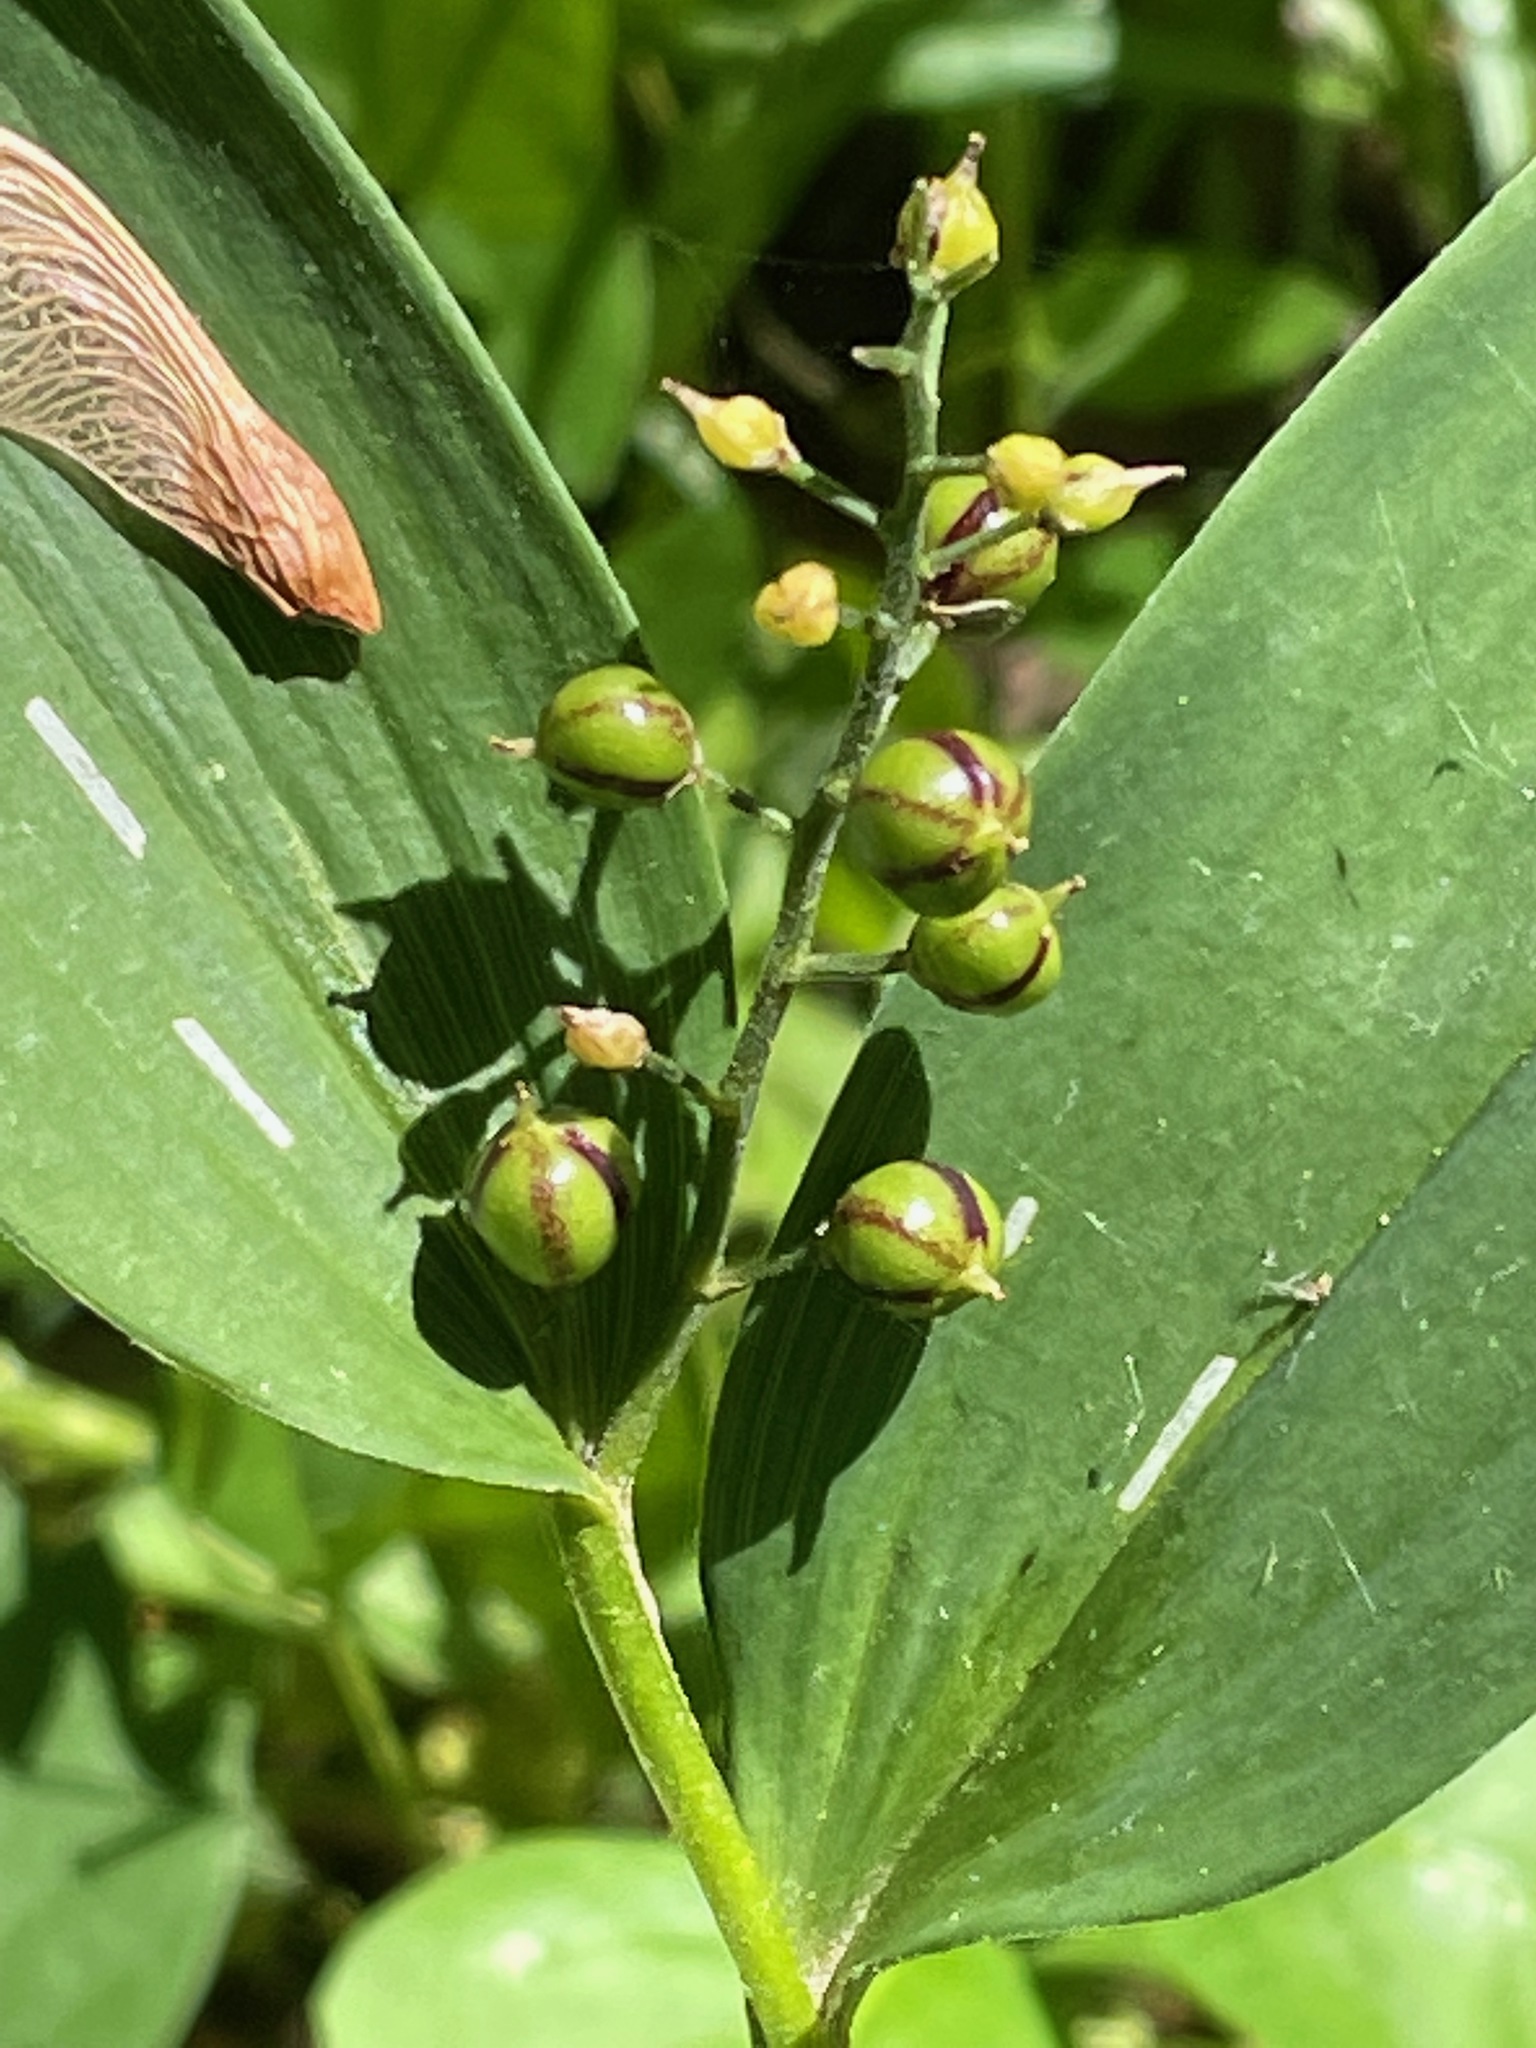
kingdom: Plantae
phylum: Tracheophyta
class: Liliopsida
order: Asparagales
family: Asparagaceae
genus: Maianthemum
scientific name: Maianthemum stellatum
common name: Little false solomon's seal
